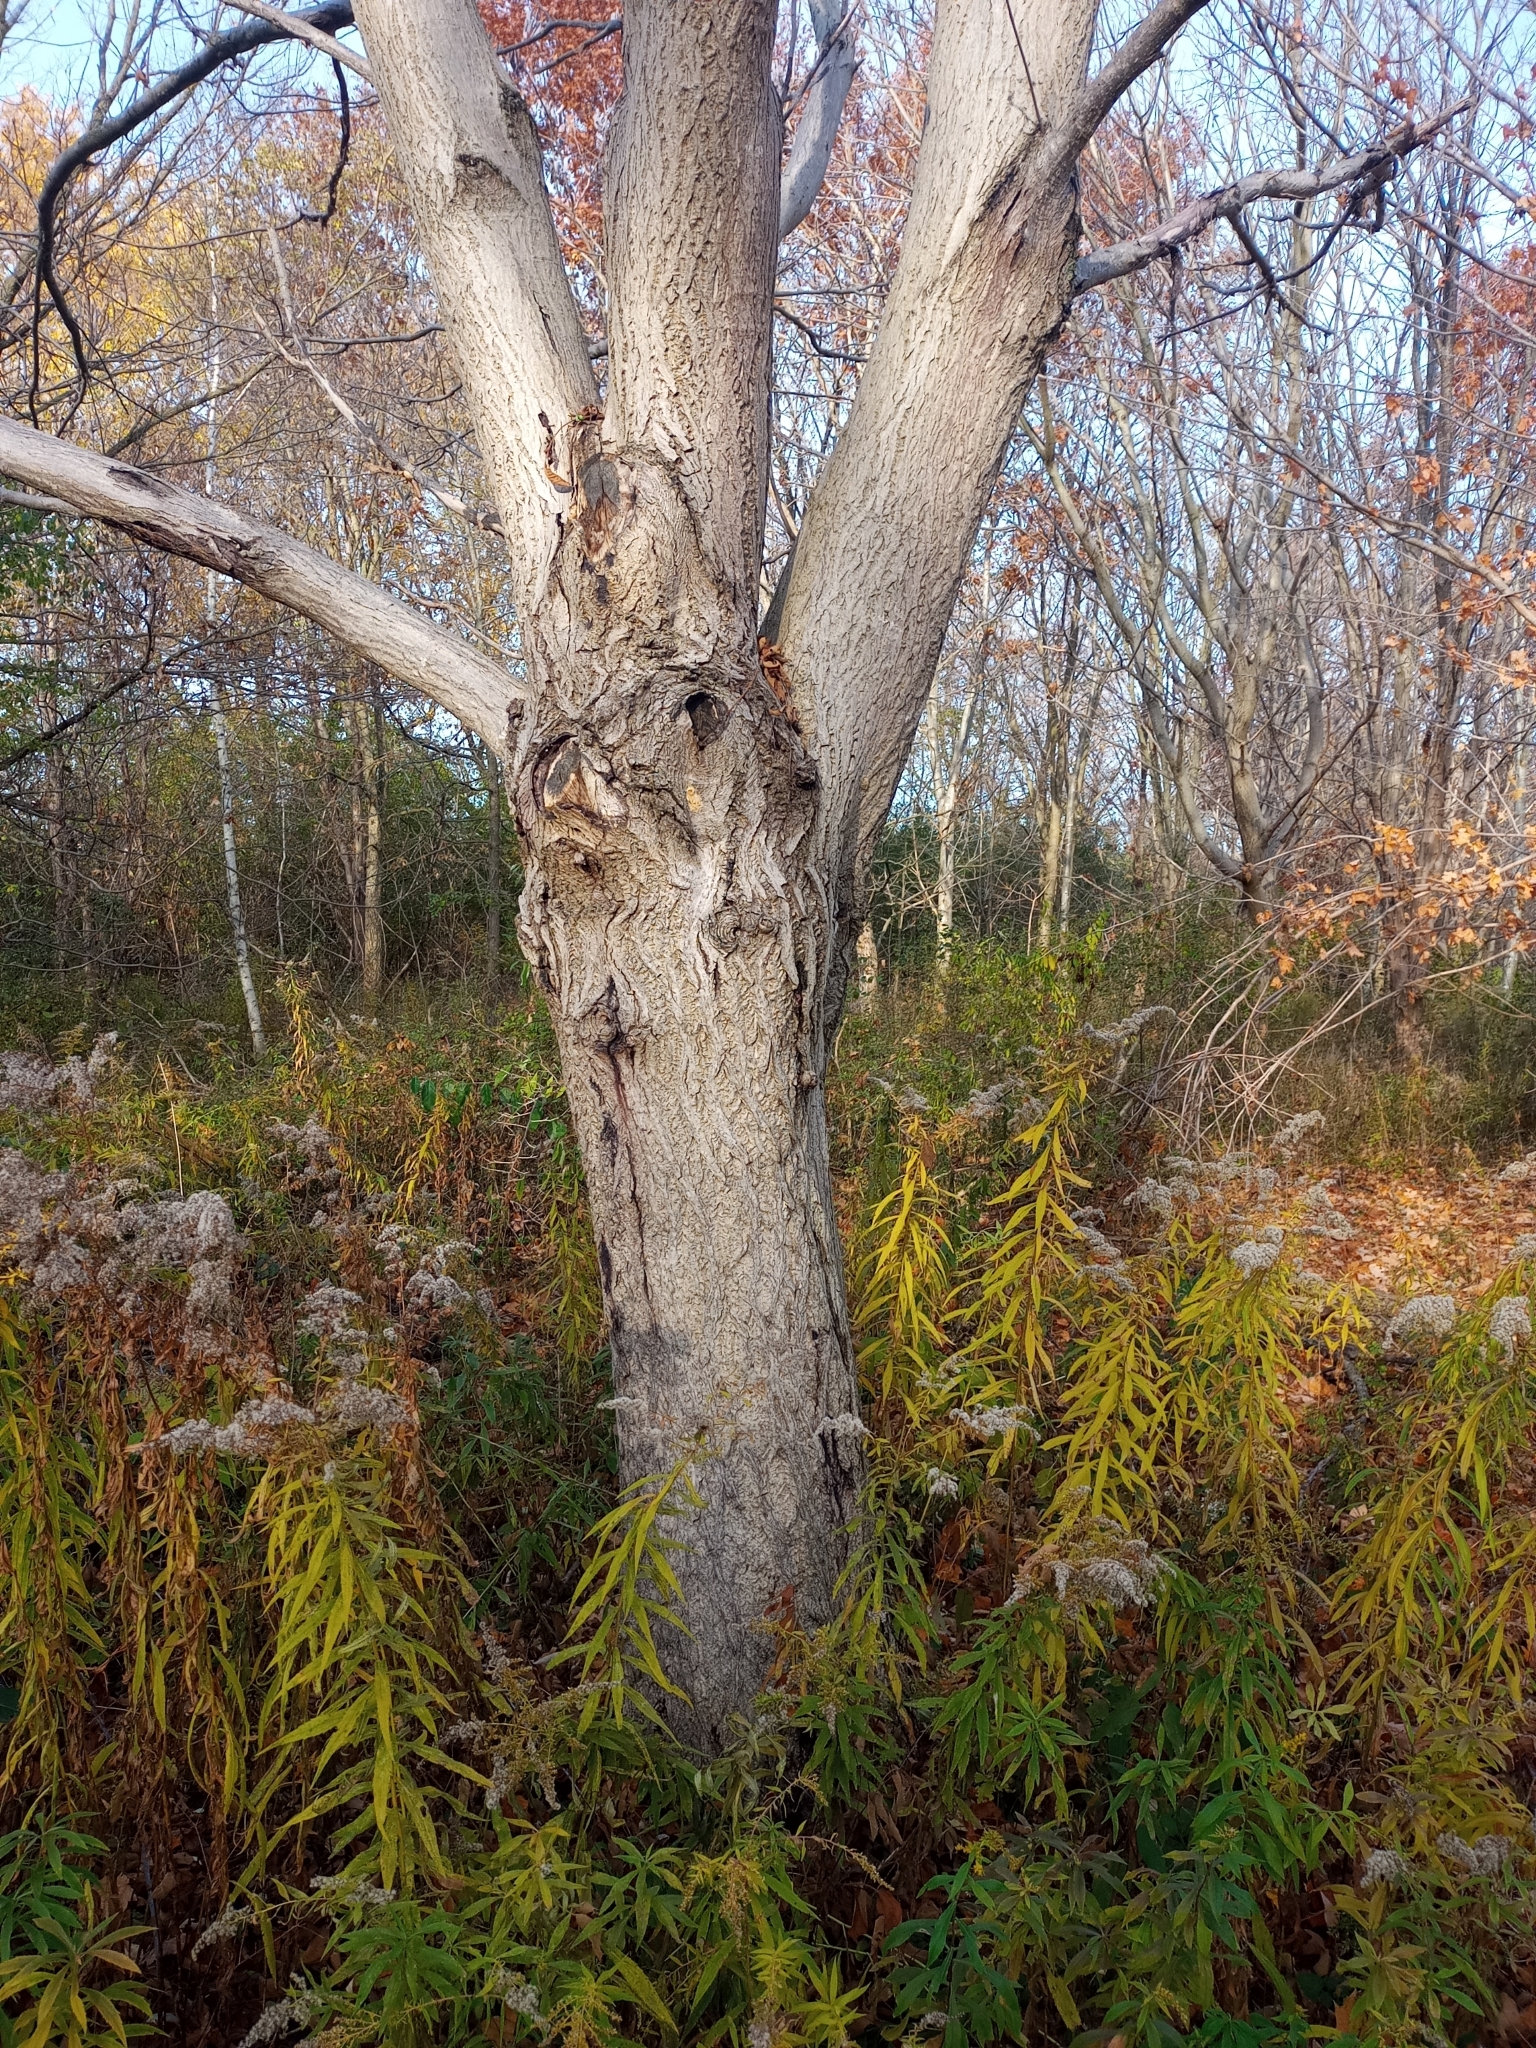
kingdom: Plantae
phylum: Tracheophyta
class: Magnoliopsida
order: Fagales
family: Juglandaceae
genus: Juglans
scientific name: Juglans cinerea
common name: Butternut
